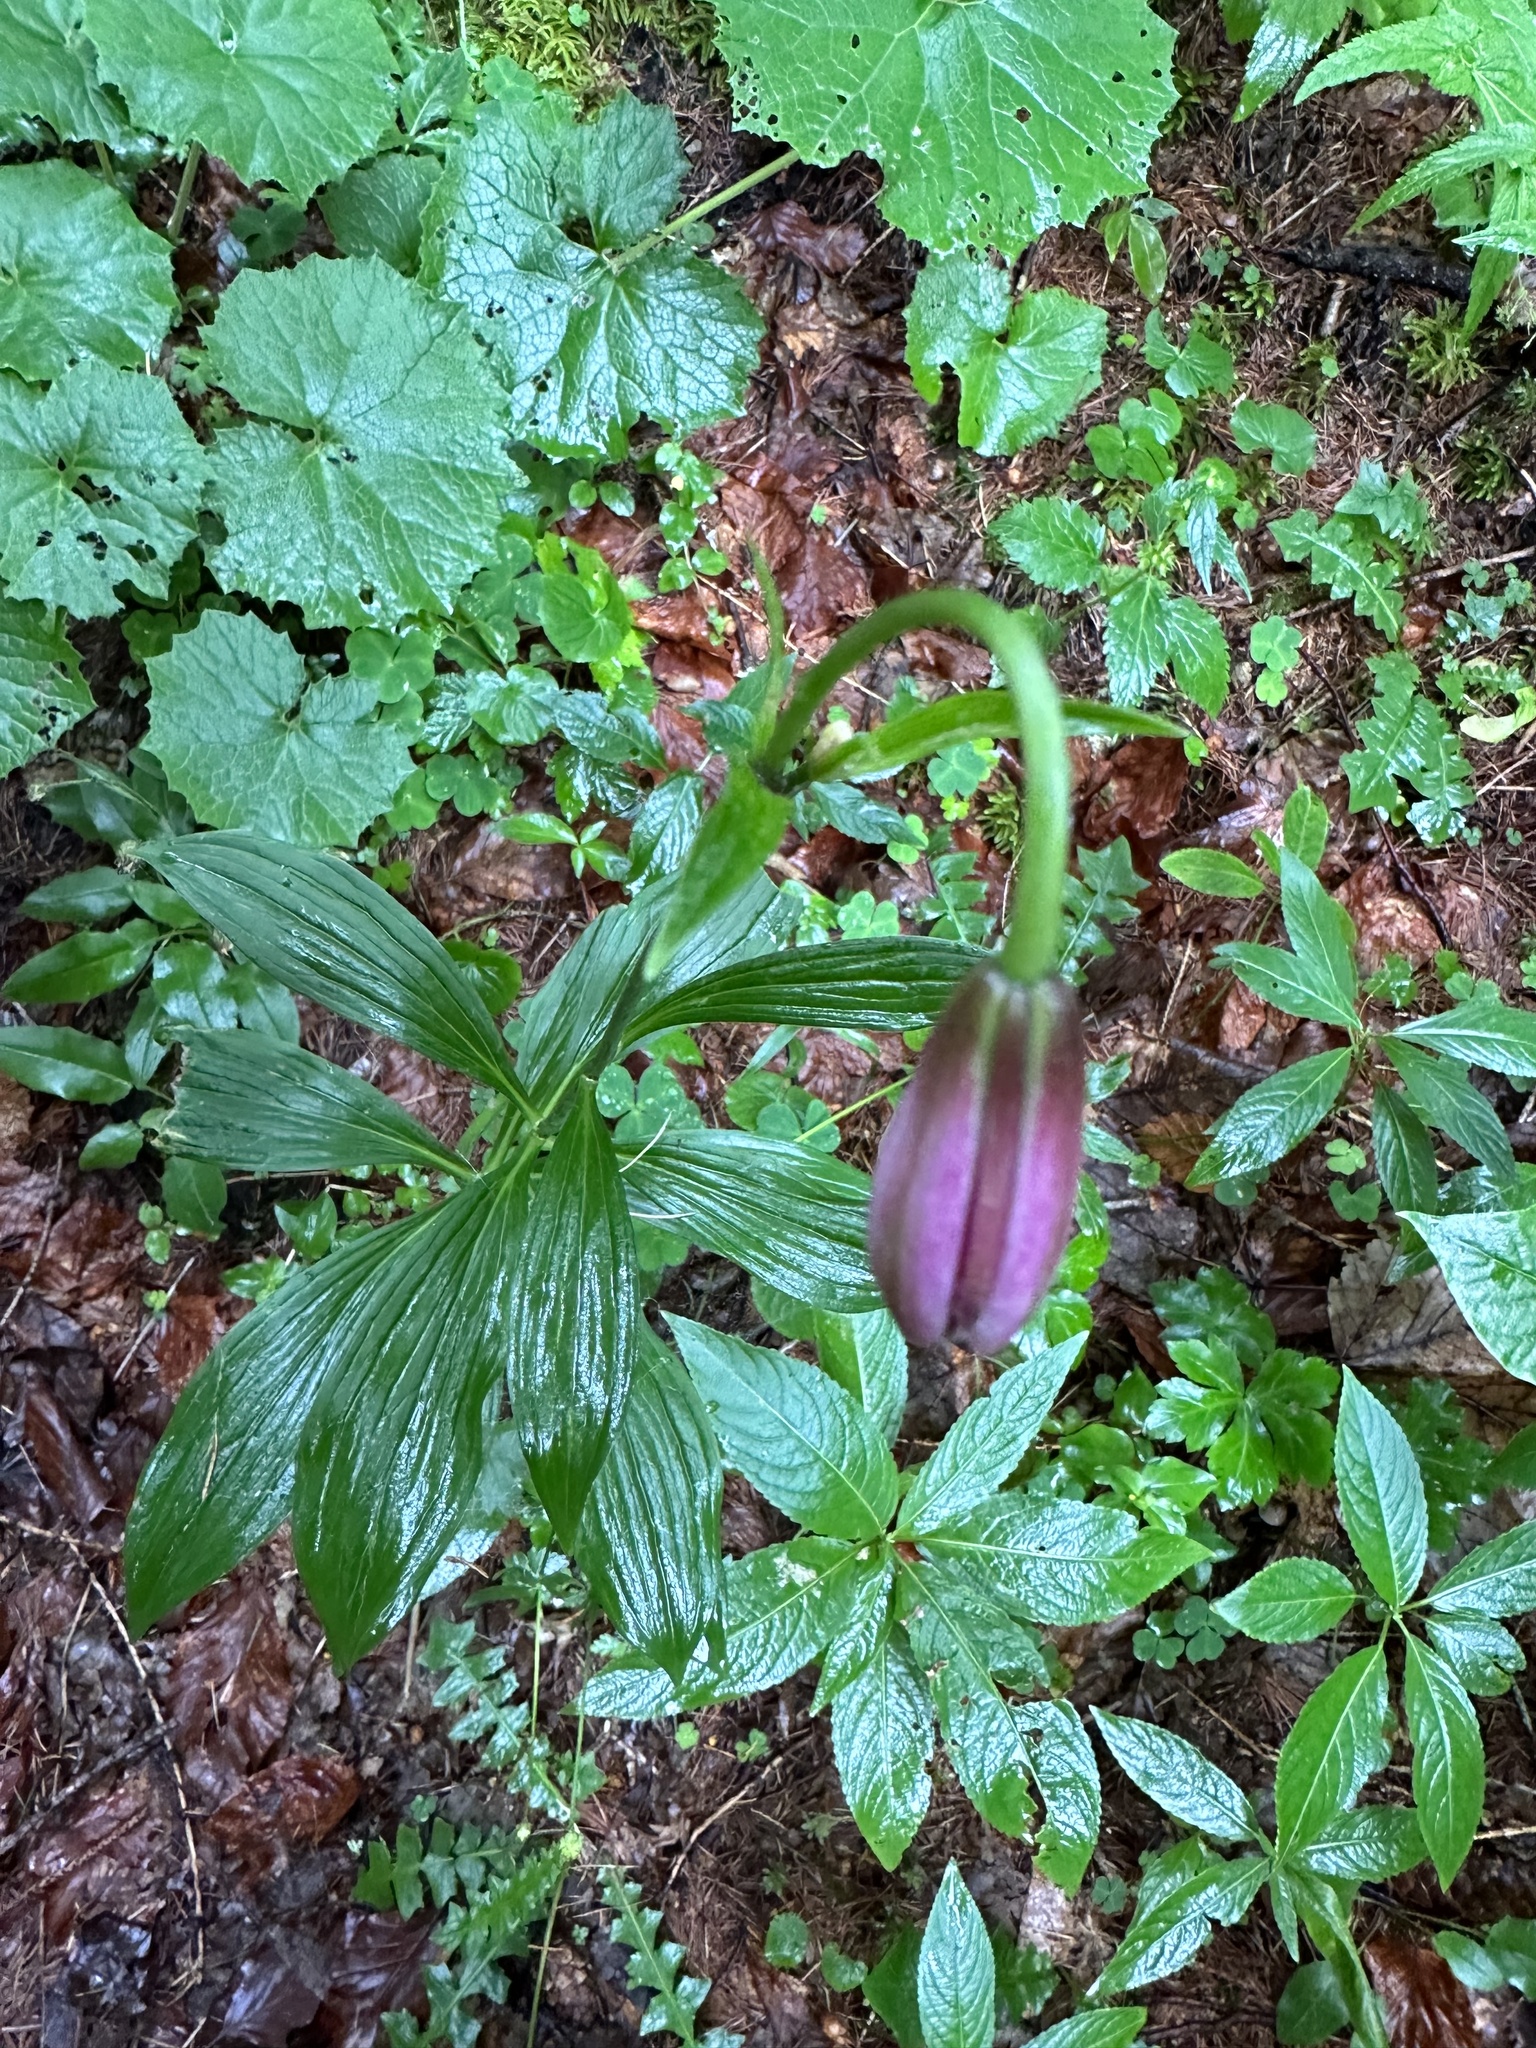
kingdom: Plantae
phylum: Tracheophyta
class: Liliopsida
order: Liliales
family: Liliaceae
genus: Lilium
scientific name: Lilium martagon
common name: Martagon lily
